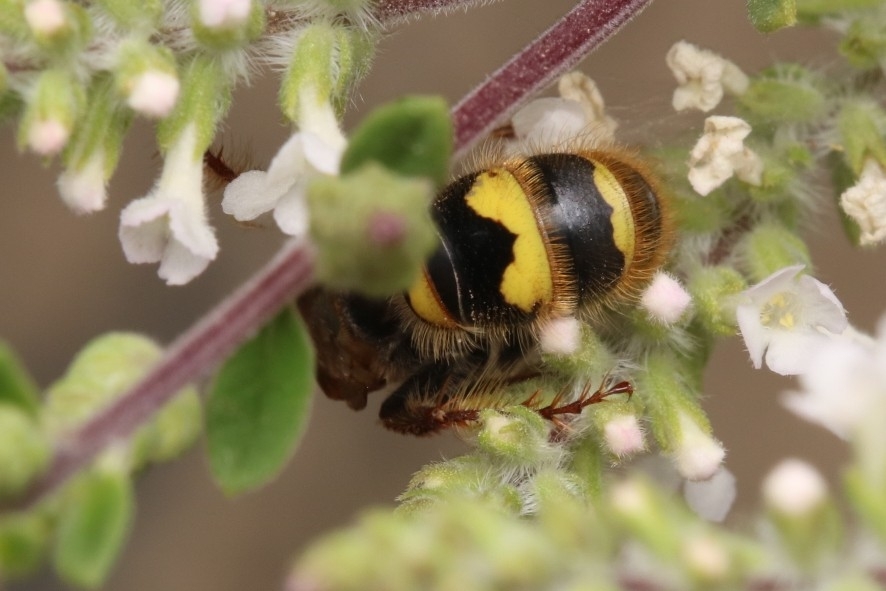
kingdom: Animalia
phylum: Arthropoda
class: Insecta
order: Hymenoptera
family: Scoliidae
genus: Xanthocampsomeris
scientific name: Xanthocampsomeris completa
